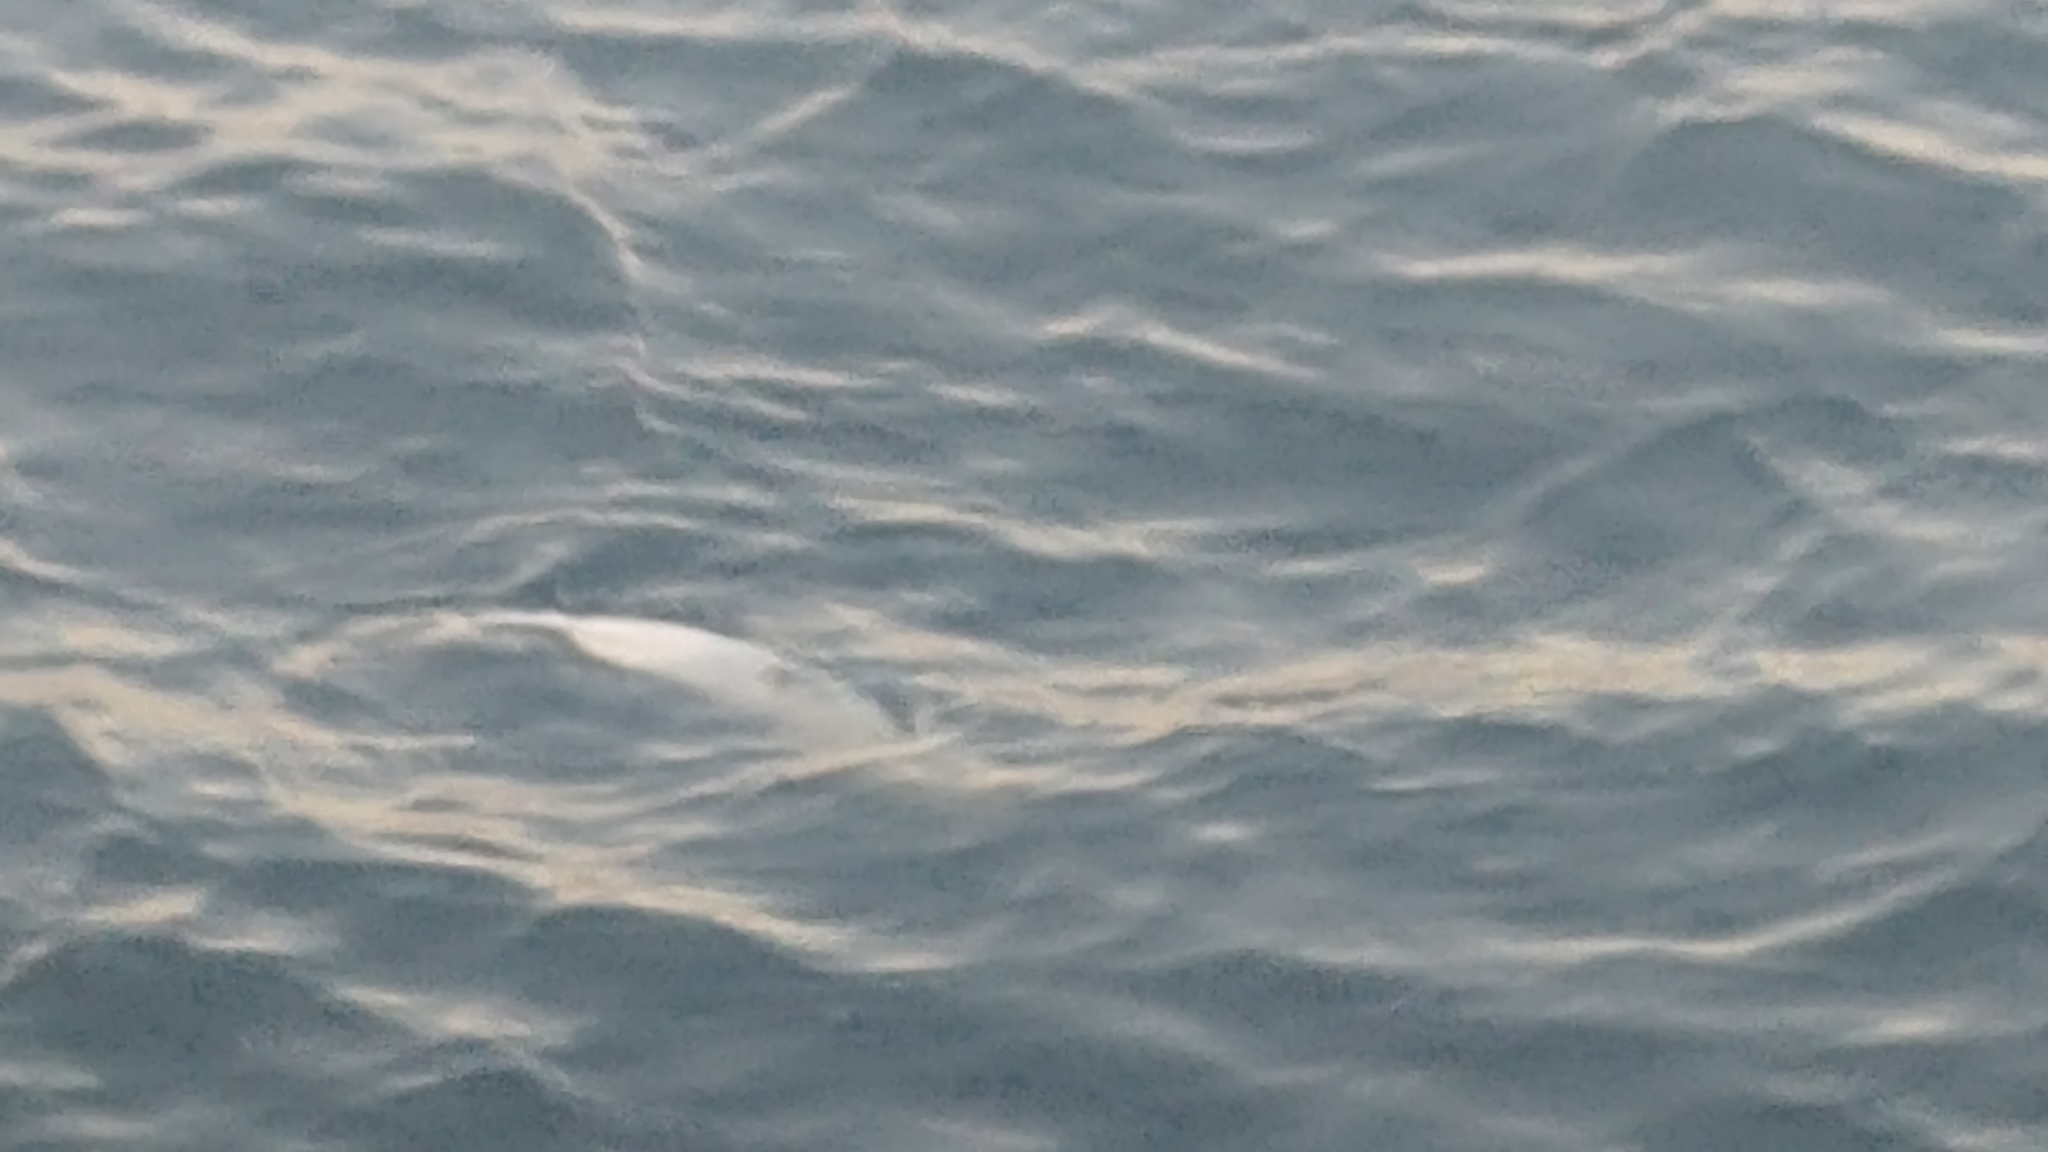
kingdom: Animalia
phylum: Chordata
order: Perciformes
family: Moronidae
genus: Morone
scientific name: Morone saxatilis
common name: Striped bass
